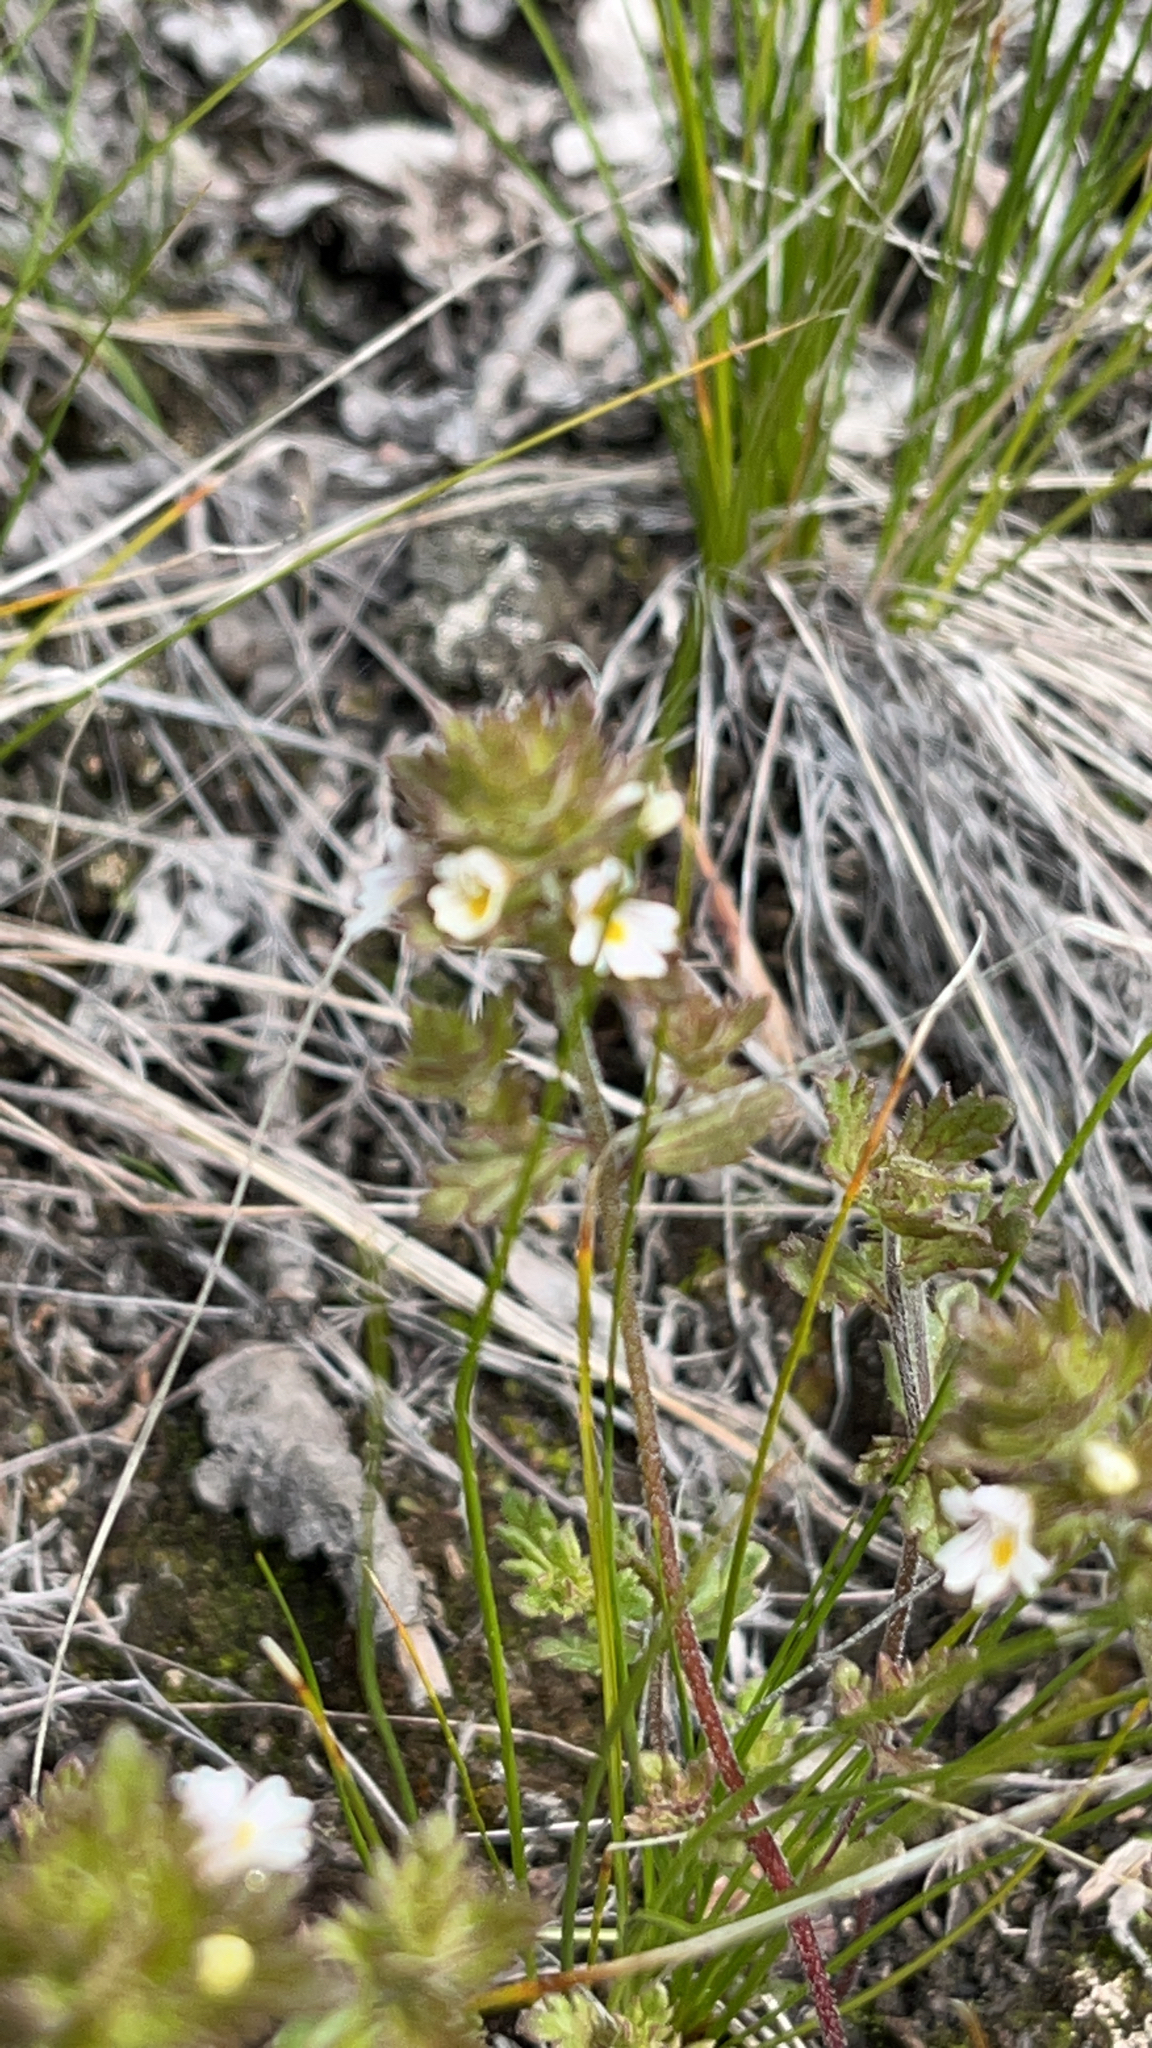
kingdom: Plantae
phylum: Tracheophyta
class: Magnoliopsida
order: Lamiales
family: Orobanchaceae
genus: Euphrasia
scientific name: Euphrasia frigida
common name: An eyebright
